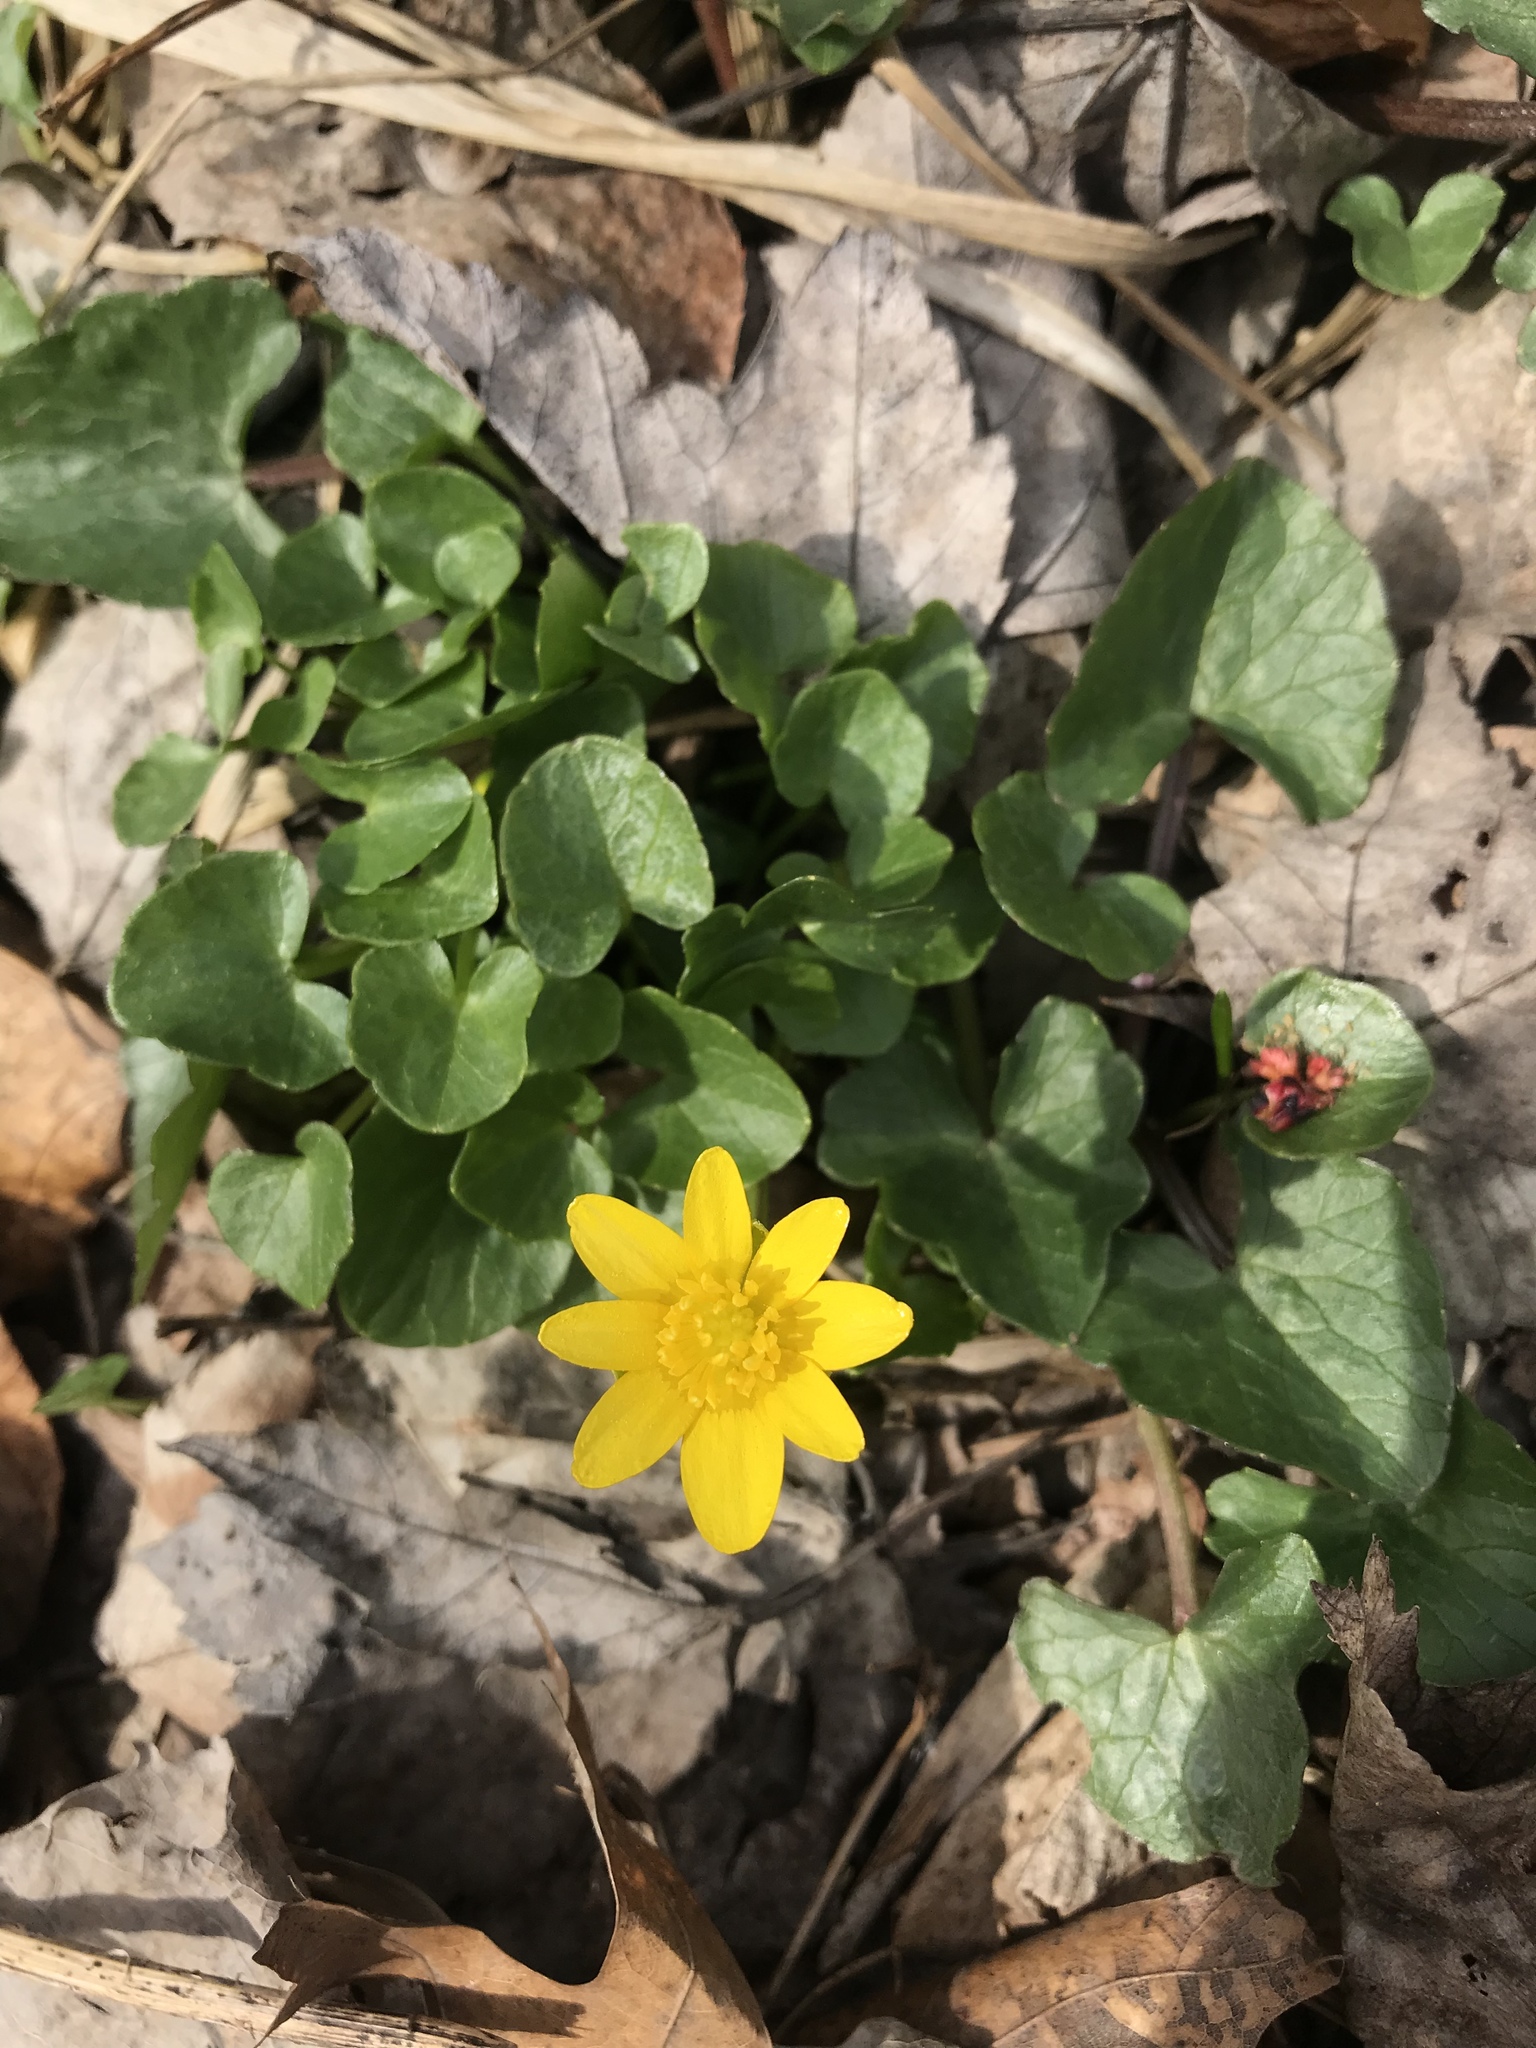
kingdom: Plantae
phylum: Tracheophyta
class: Magnoliopsida
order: Ranunculales
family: Ranunculaceae
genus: Ficaria
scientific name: Ficaria verna
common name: Lesser celandine
